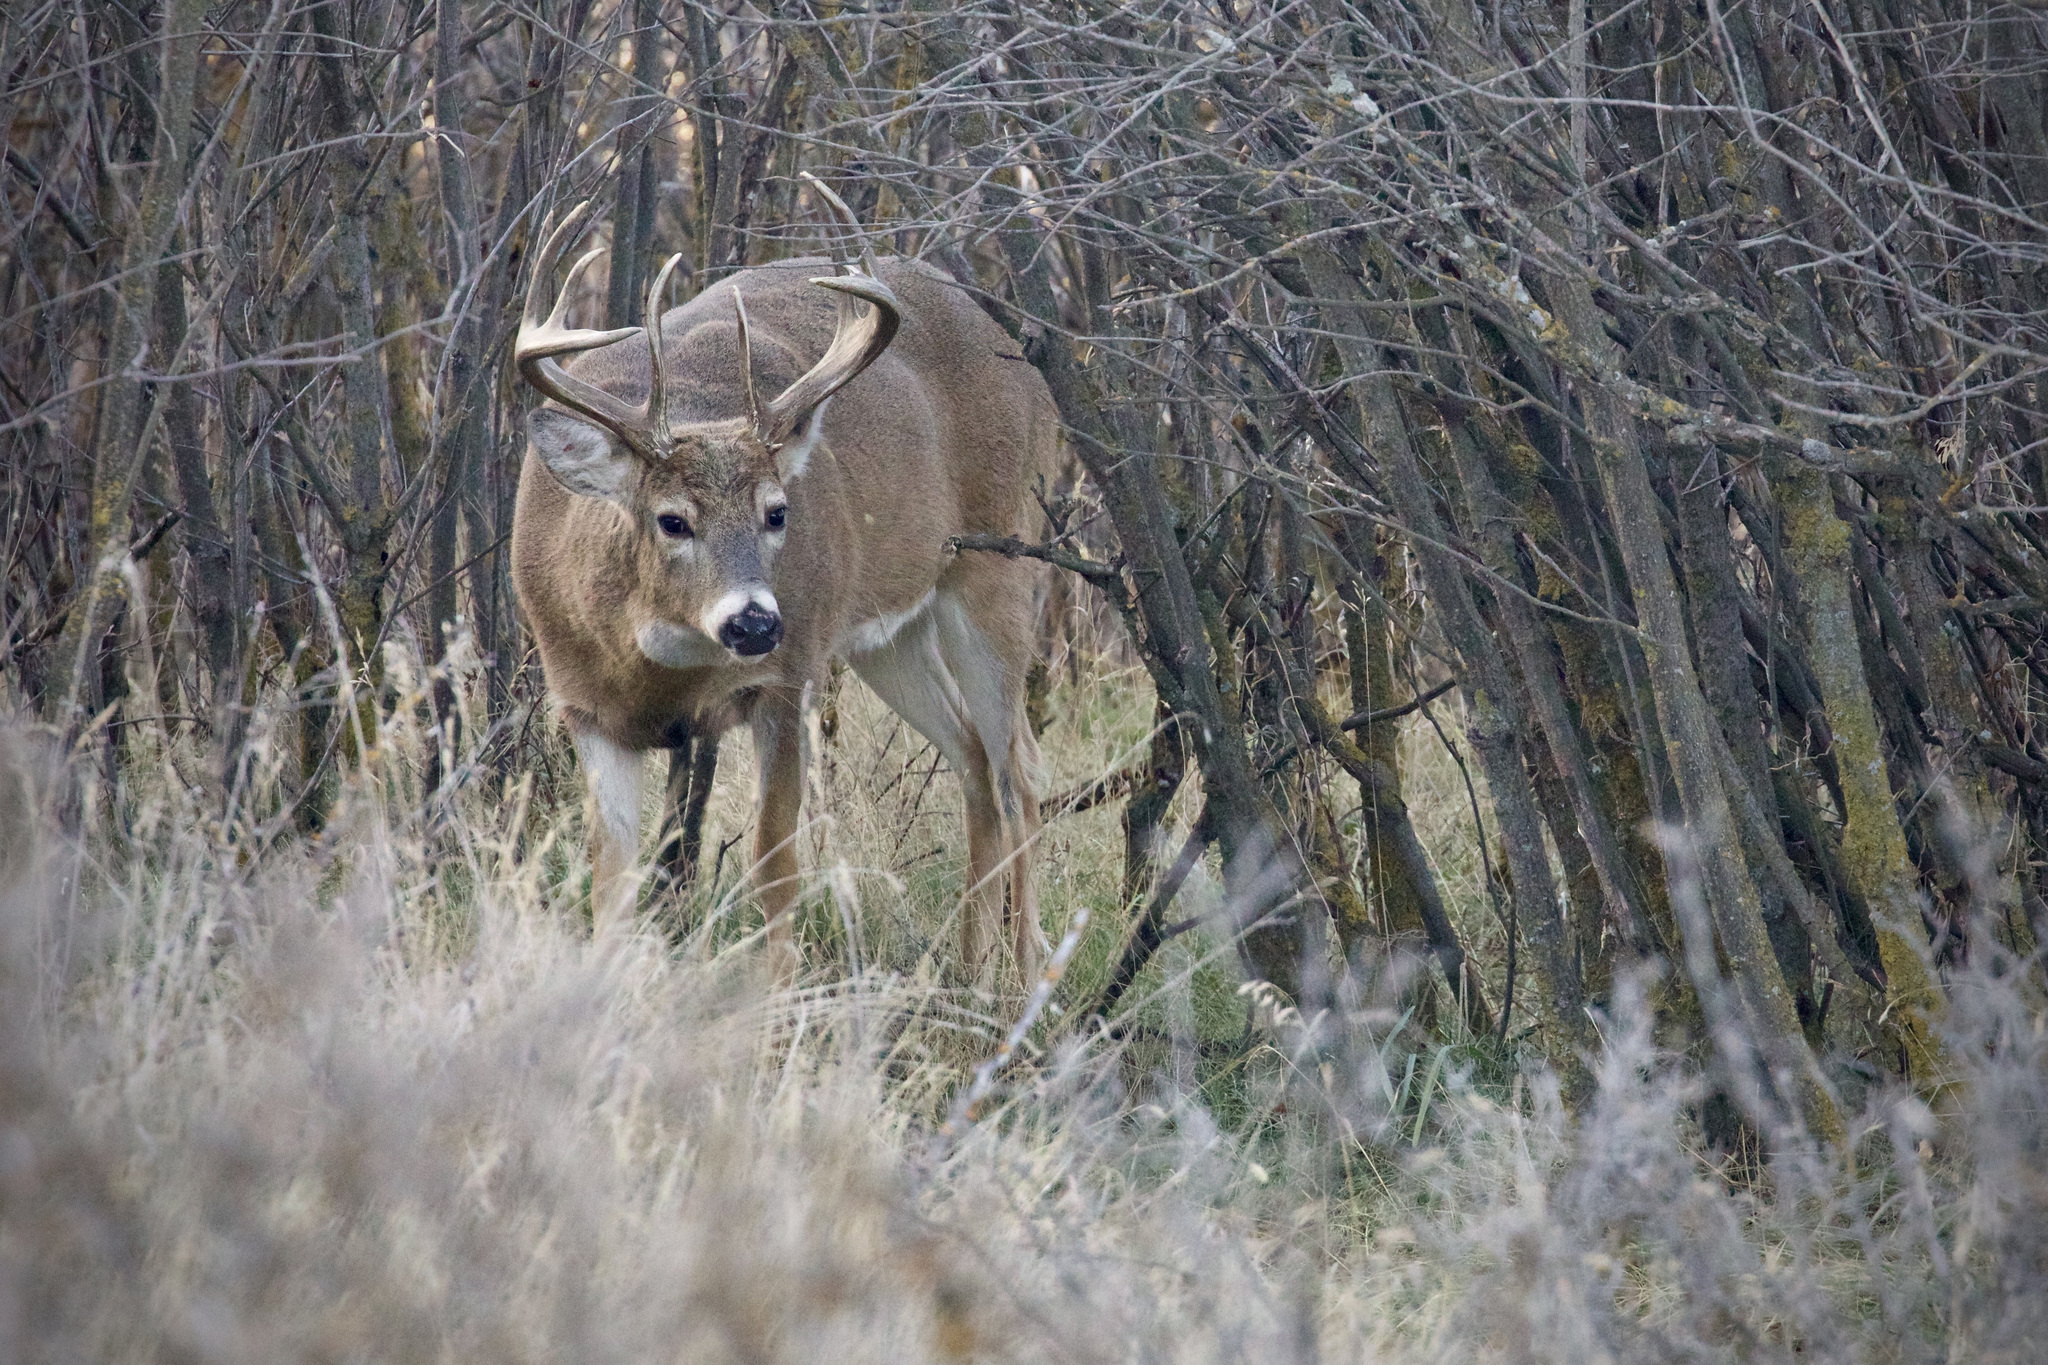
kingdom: Animalia
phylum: Chordata
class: Mammalia
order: Artiodactyla
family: Cervidae
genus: Odocoileus
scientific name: Odocoileus virginianus
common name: White-tailed deer
